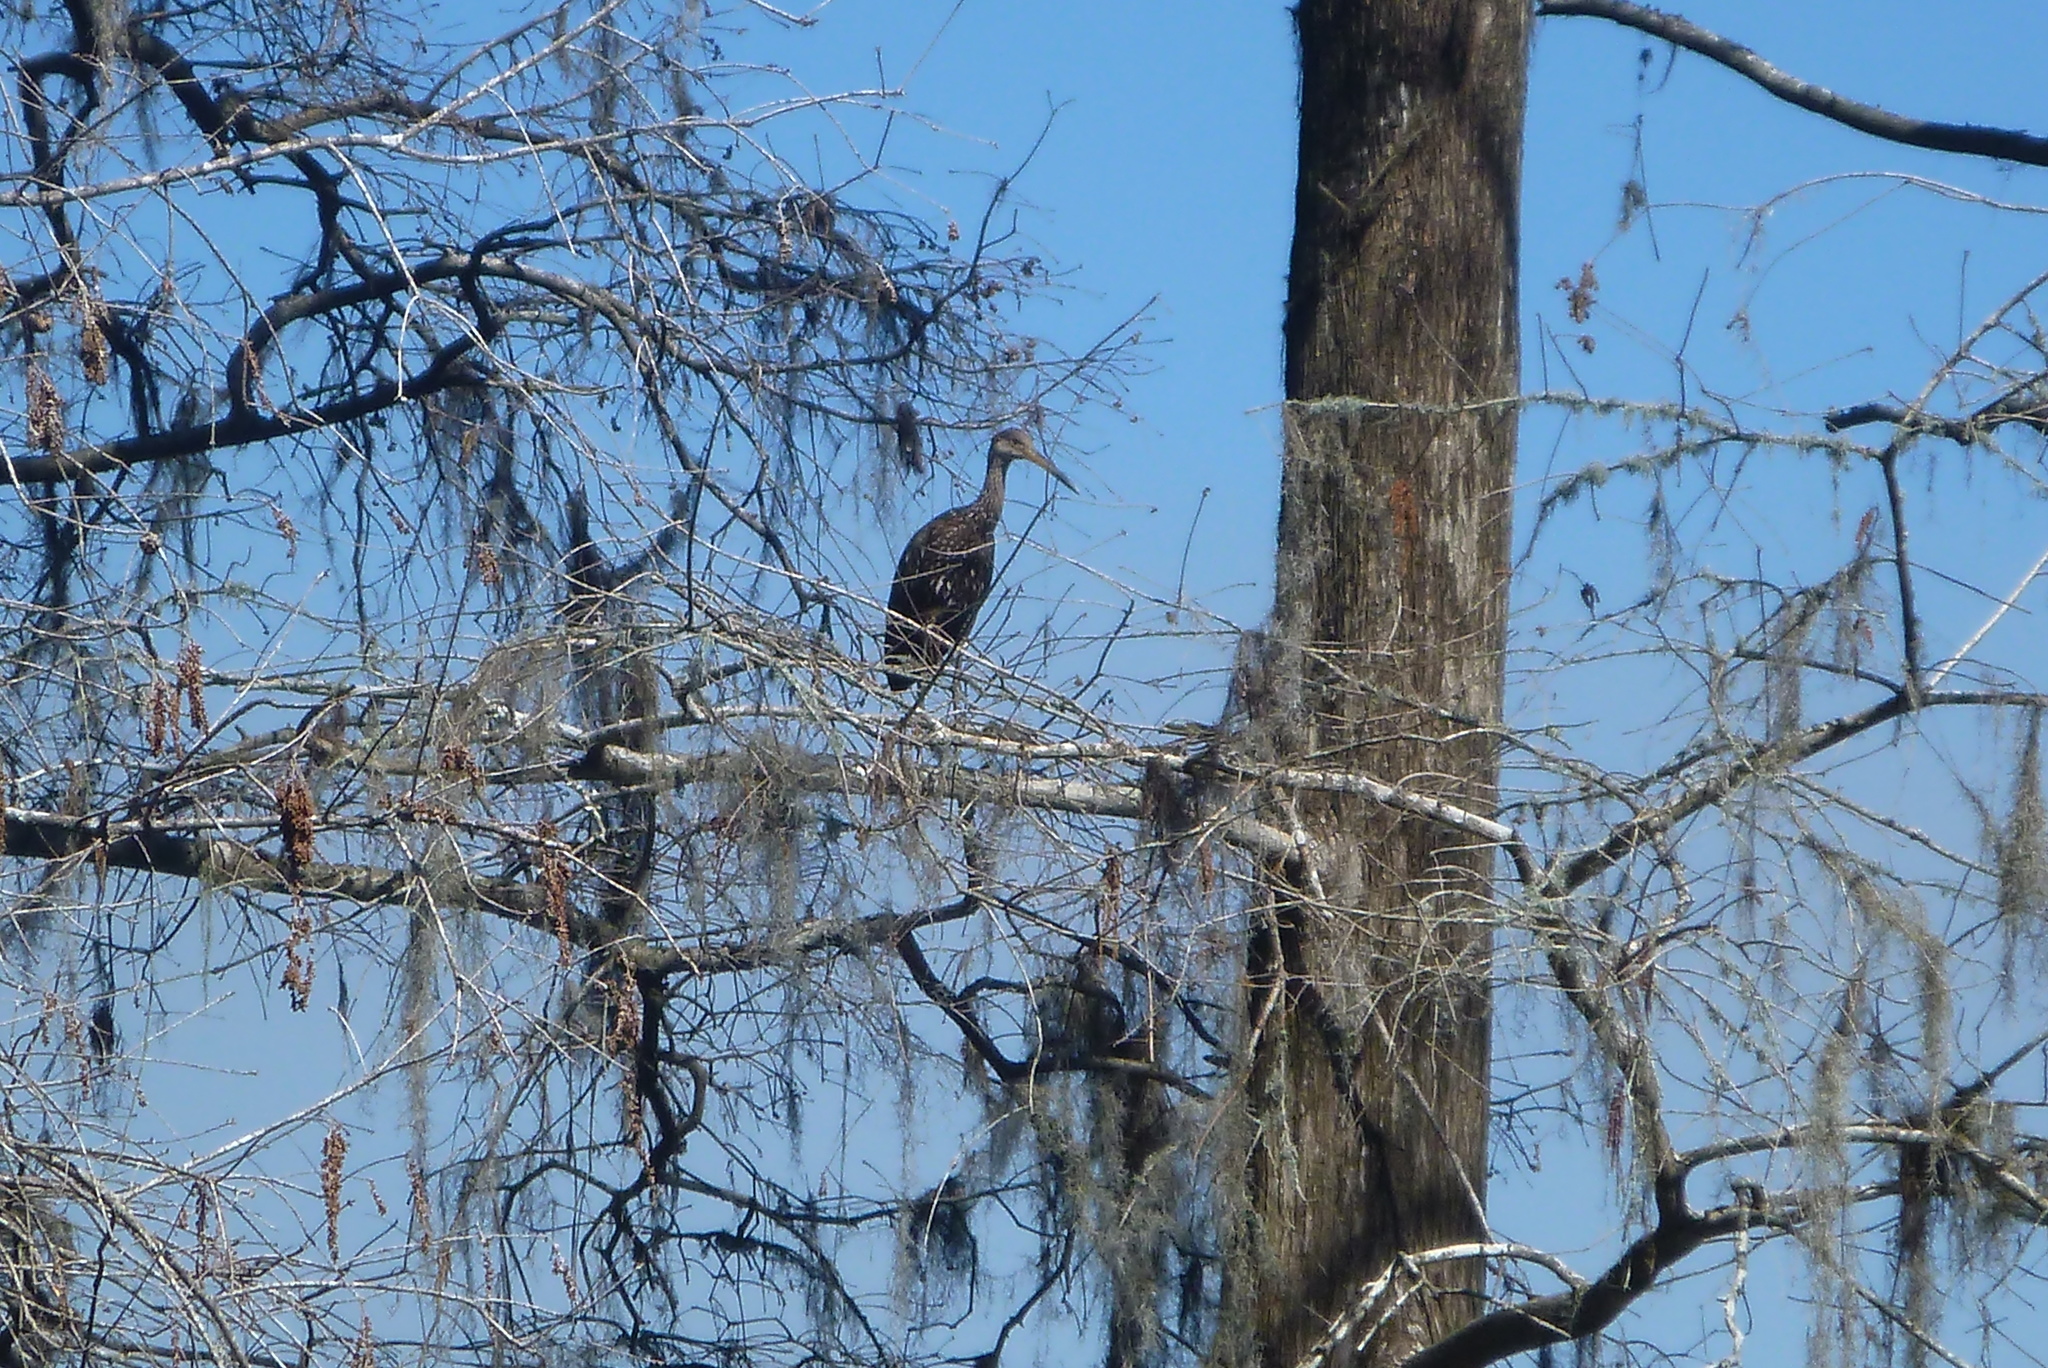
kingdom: Animalia
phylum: Chordata
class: Aves
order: Gruiformes
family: Aramidae
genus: Aramus
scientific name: Aramus guarauna
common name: Limpkin
